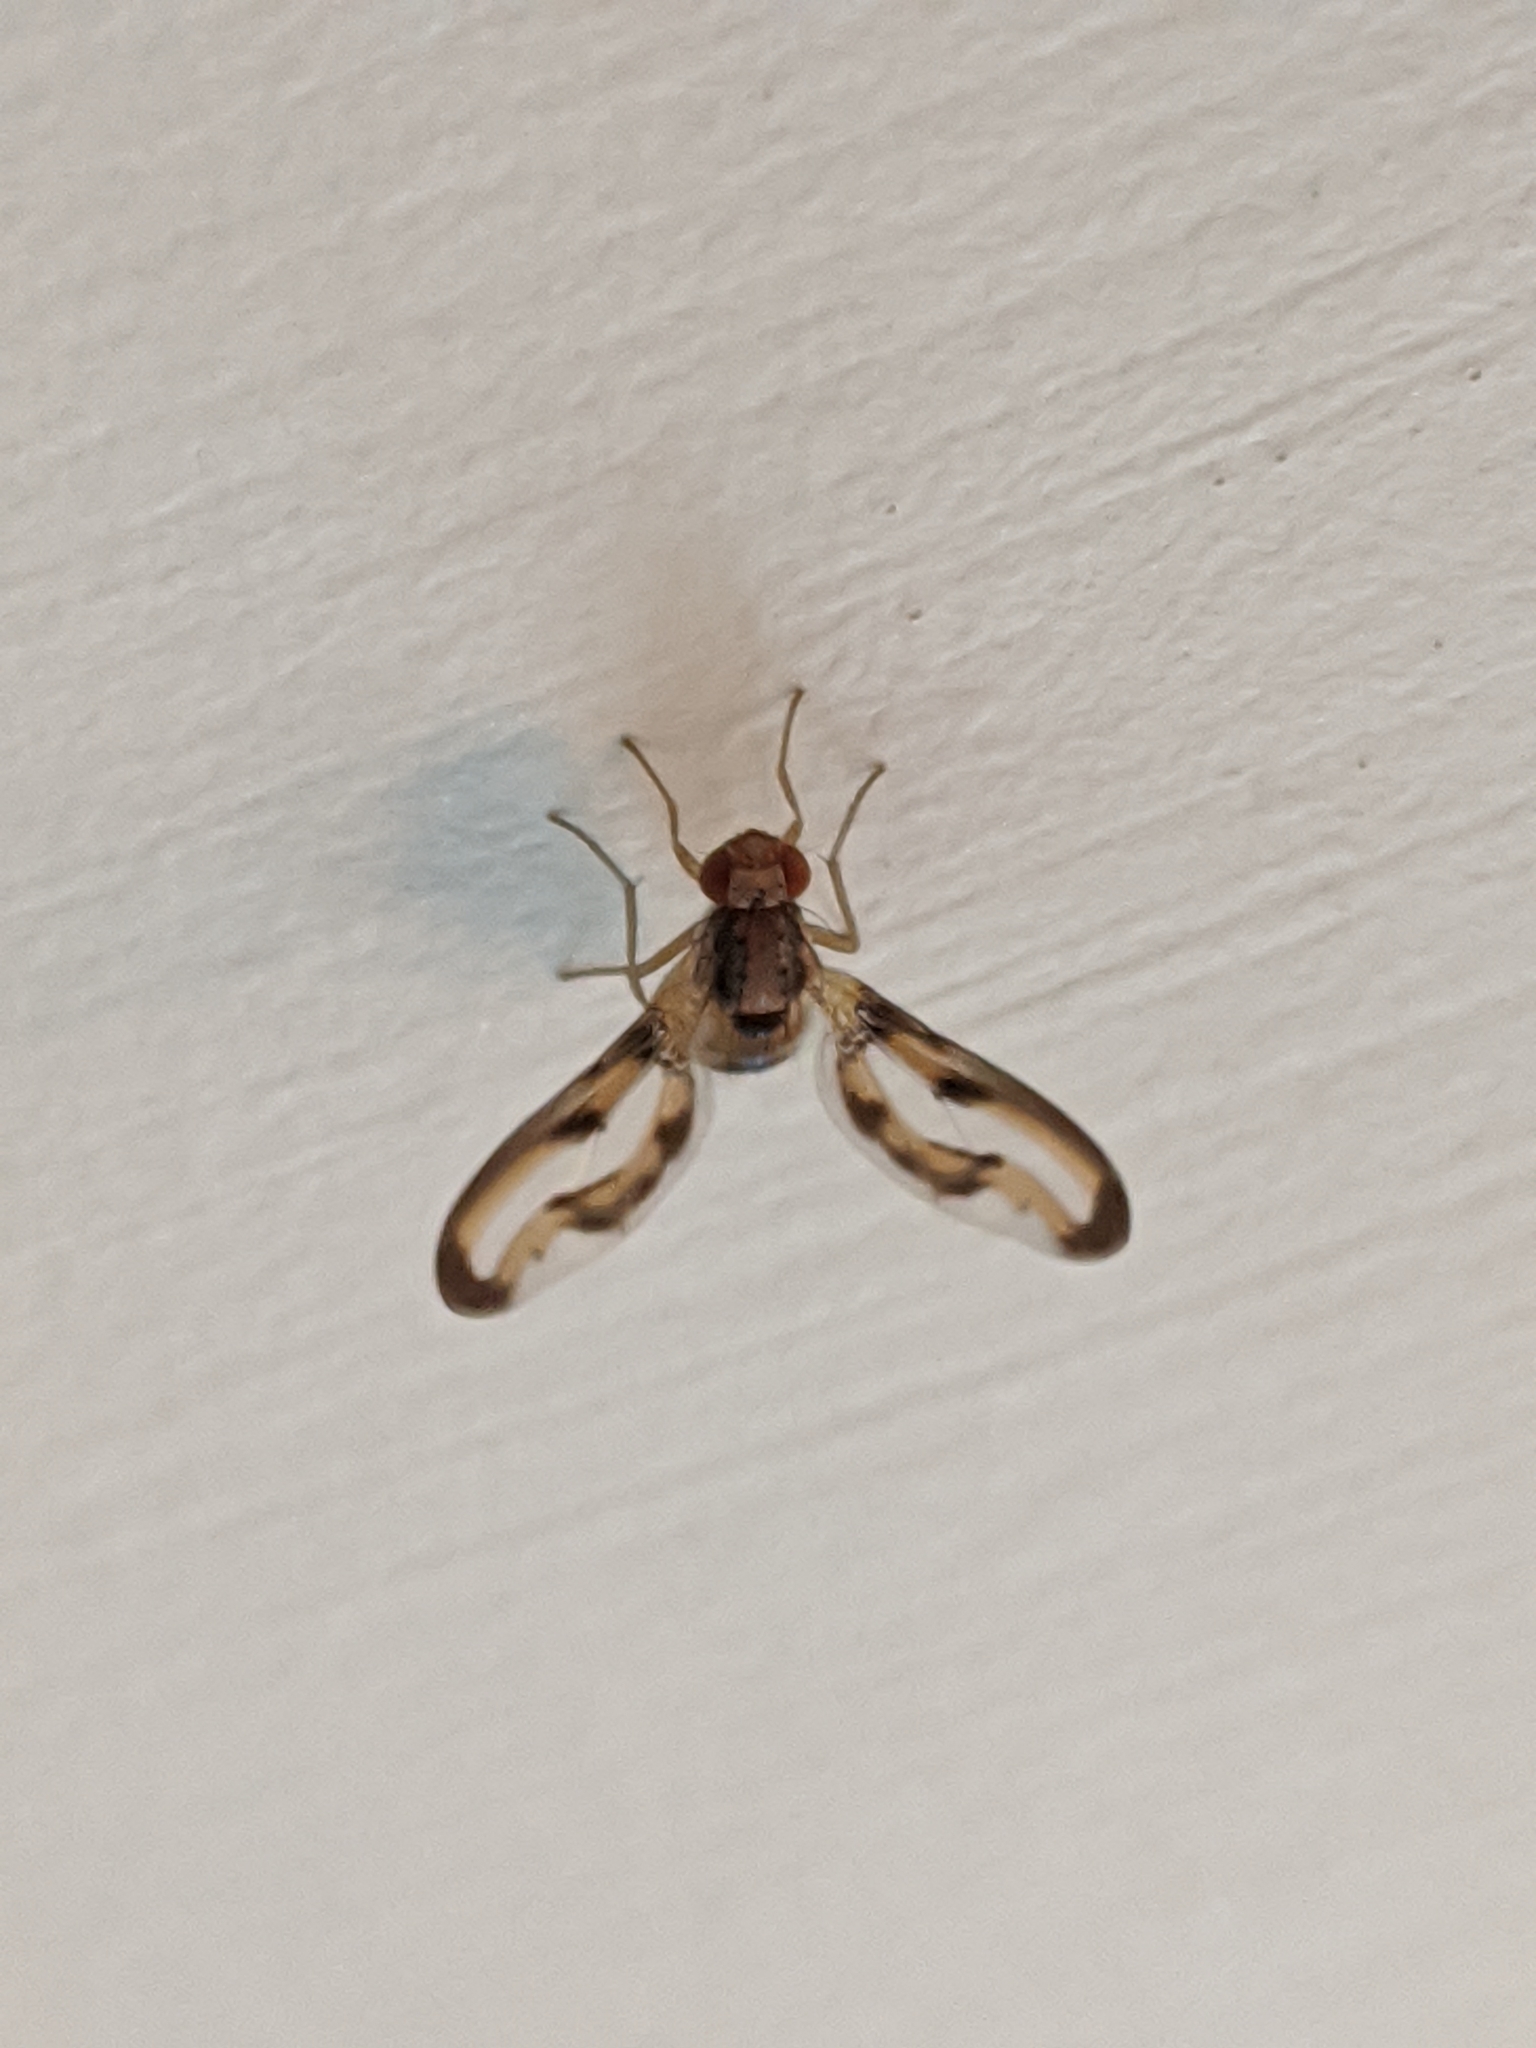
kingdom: Animalia
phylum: Arthropoda
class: Insecta
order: Diptera
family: Pallopteridae
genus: Toxonevra
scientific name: Toxonevra muliebris
